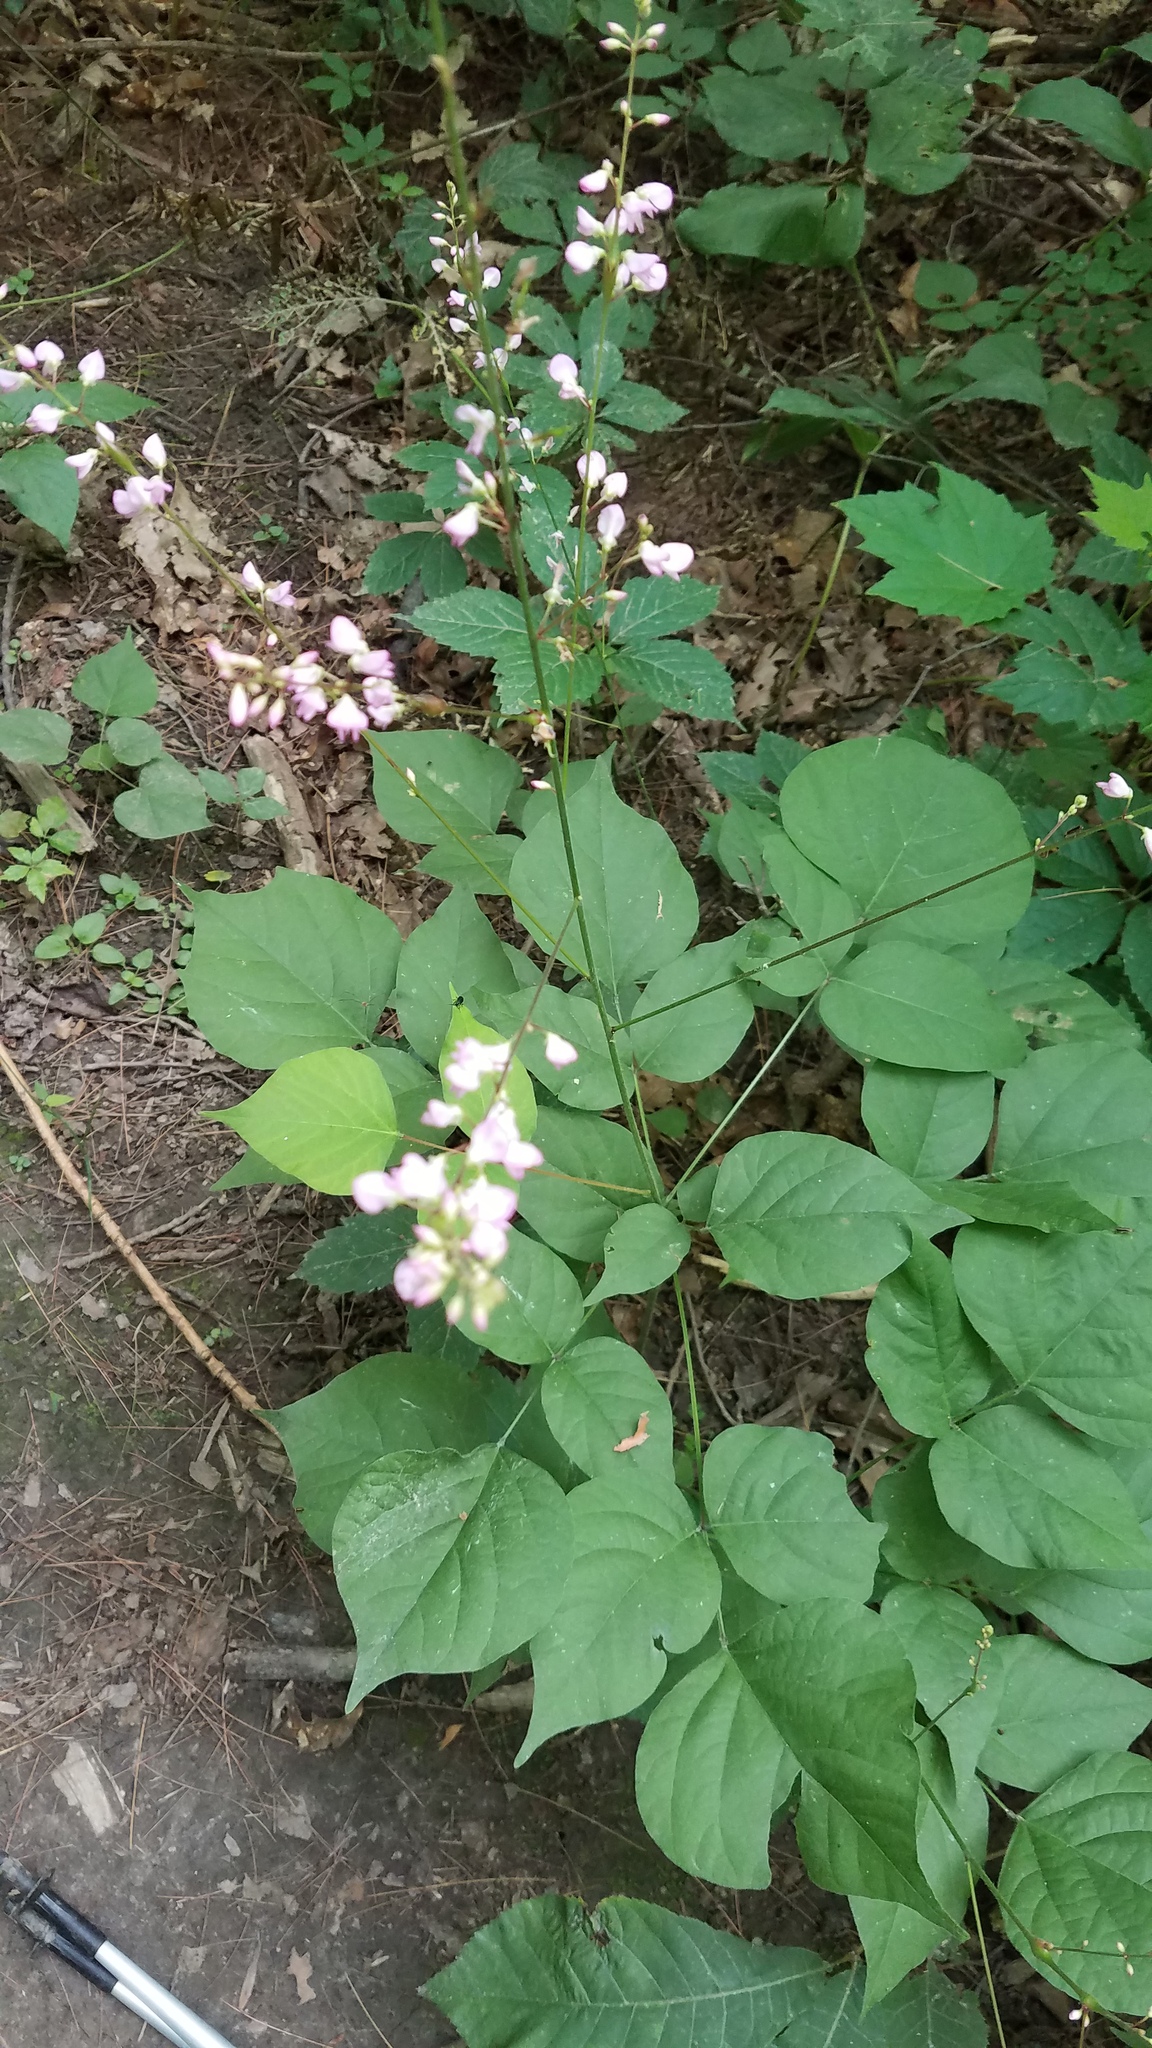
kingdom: Plantae
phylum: Tracheophyta
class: Magnoliopsida
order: Fabales
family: Fabaceae
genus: Hylodesmum
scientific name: Hylodesmum glutinosum
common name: Clustered-leaved tick-trefoil
